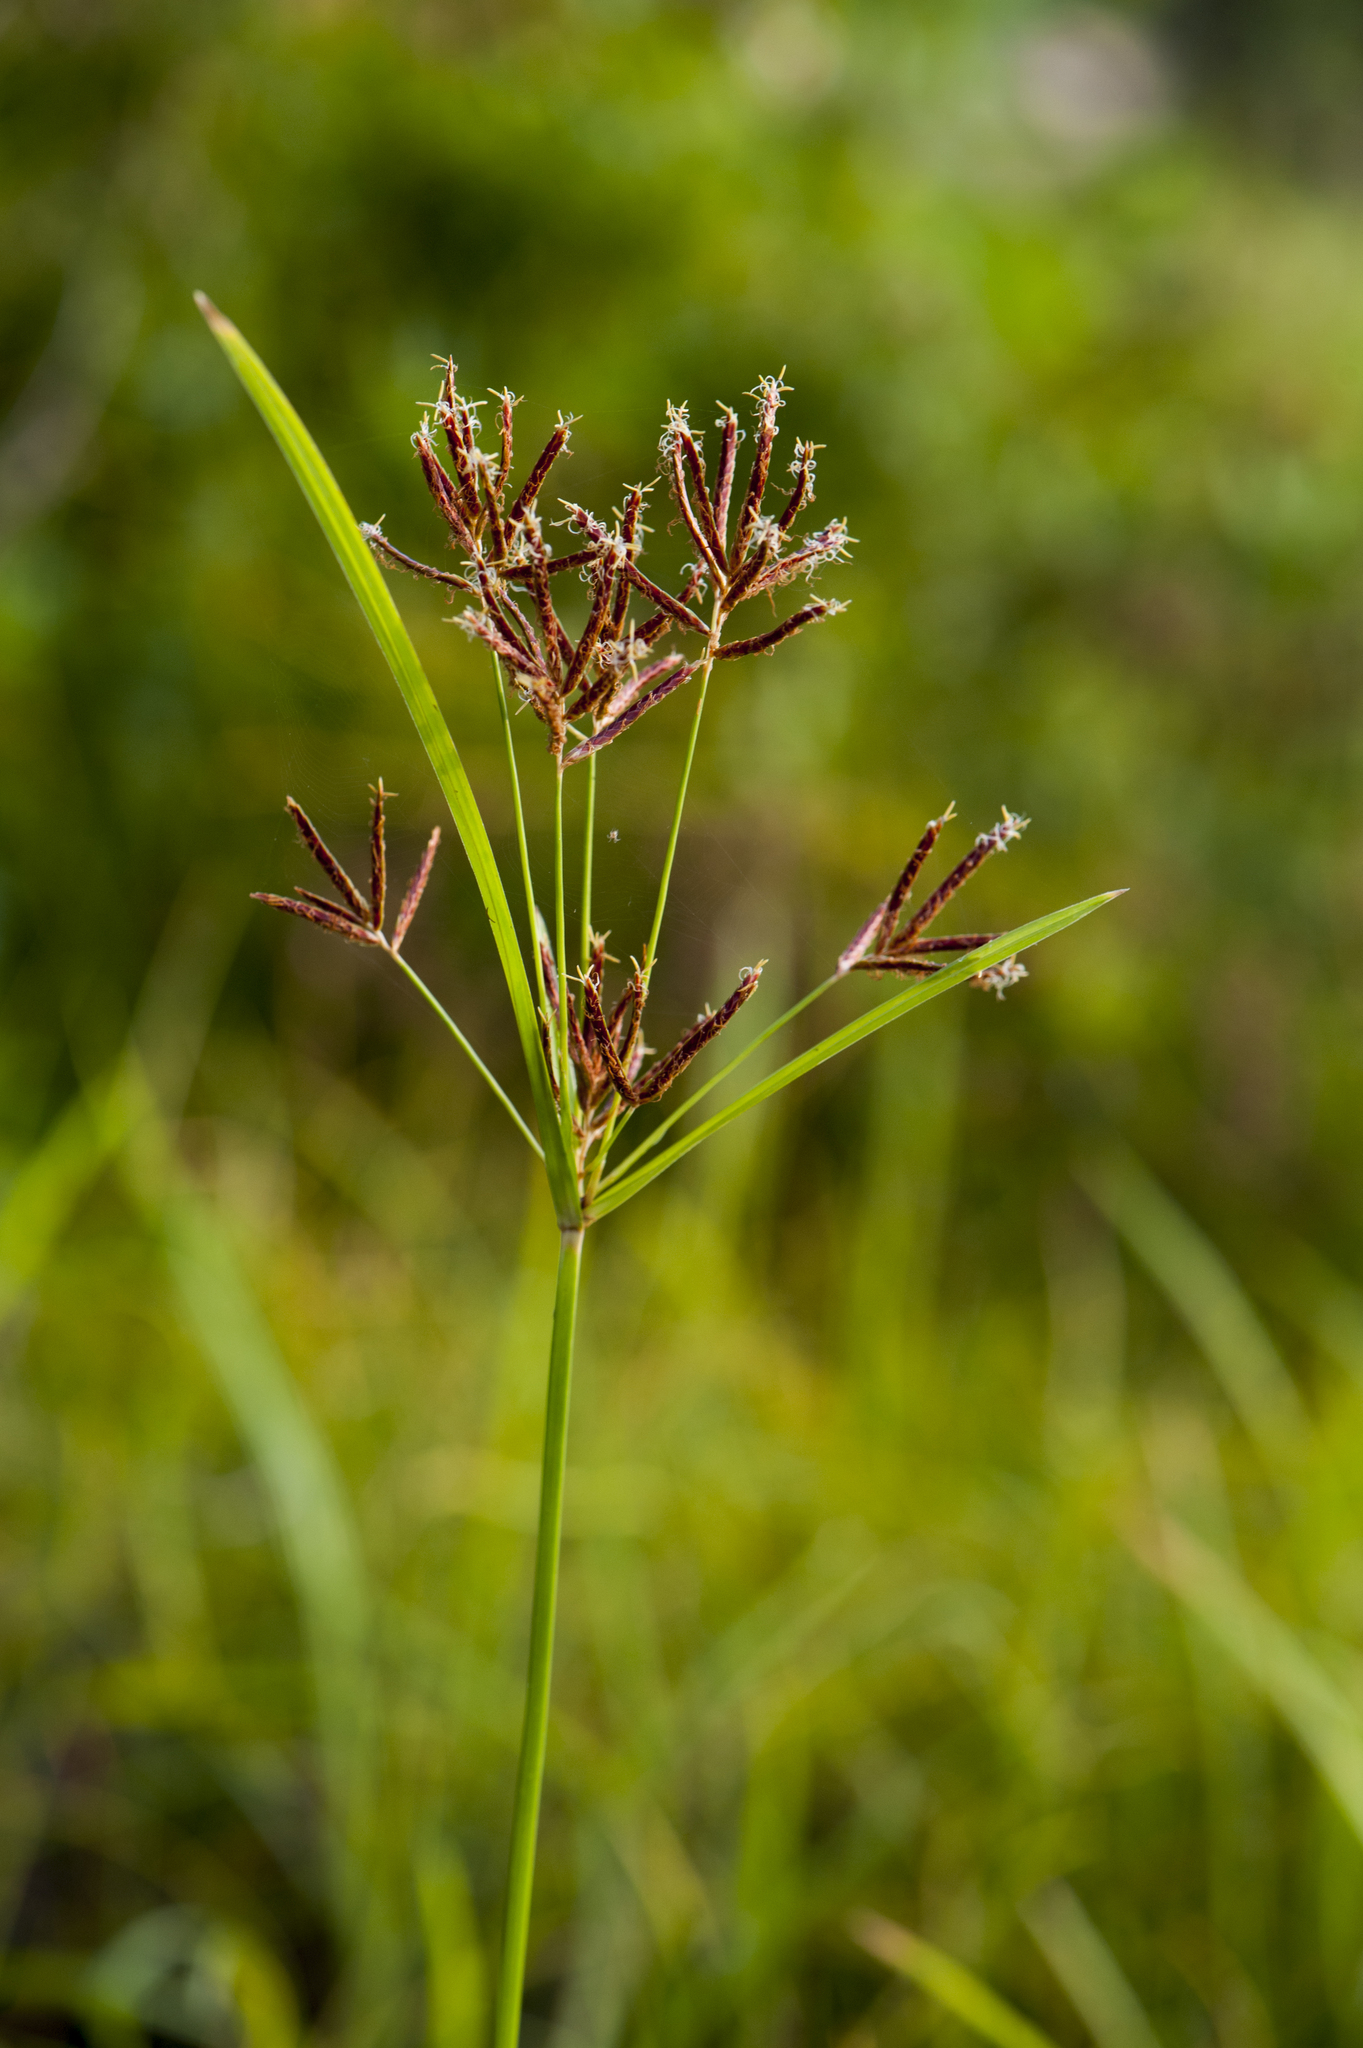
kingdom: Plantae
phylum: Tracheophyta
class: Liliopsida
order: Poales
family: Cyperaceae
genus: Cyperus
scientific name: Cyperus rotundus
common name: Nutgrass
